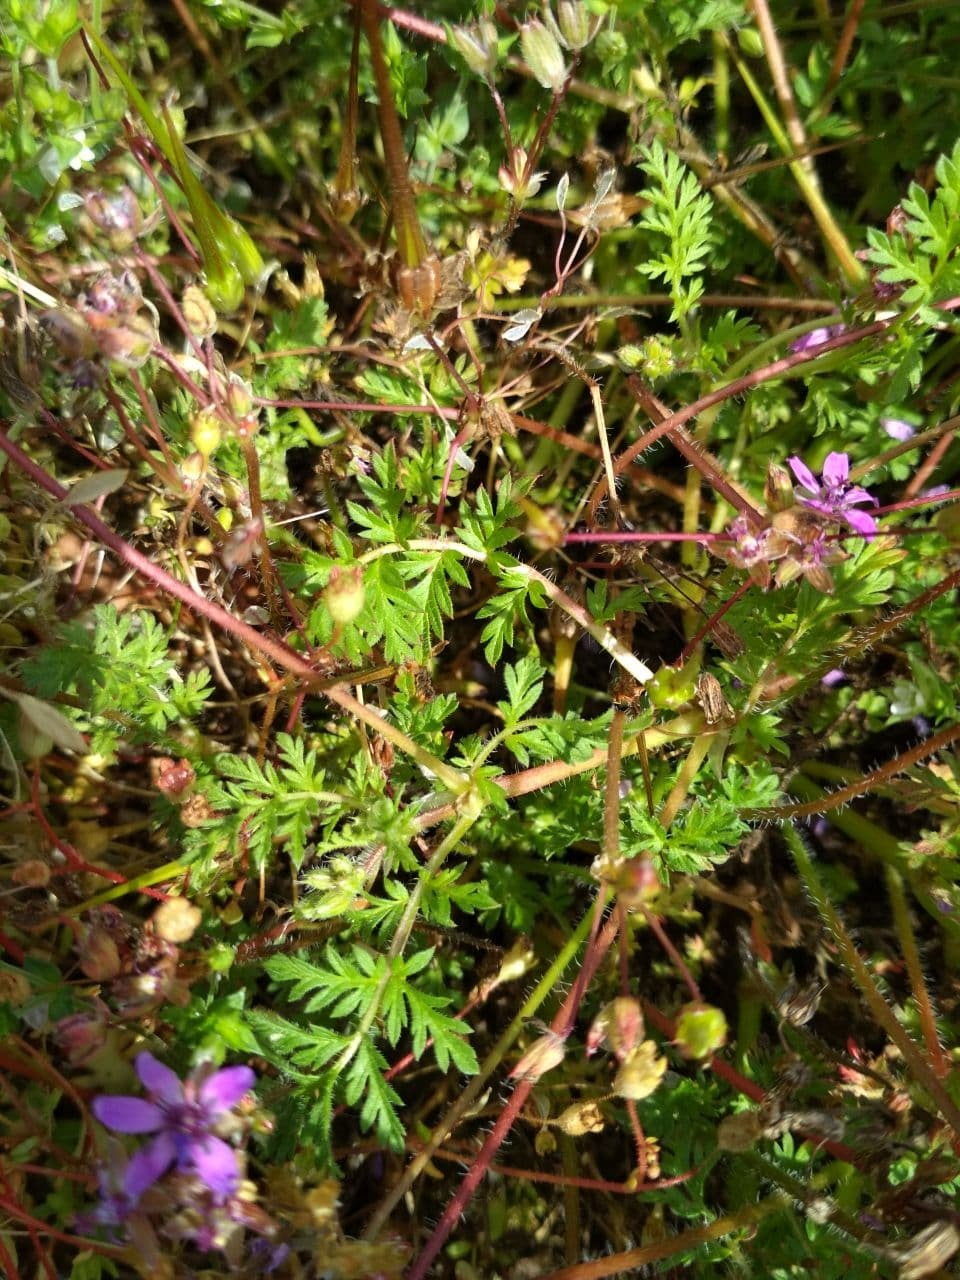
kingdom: Plantae
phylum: Tracheophyta
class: Magnoliopsida
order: Geraniales
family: Geraniaceae
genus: Erodium
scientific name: Erodium cicutarium
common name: Common stork's-bill
